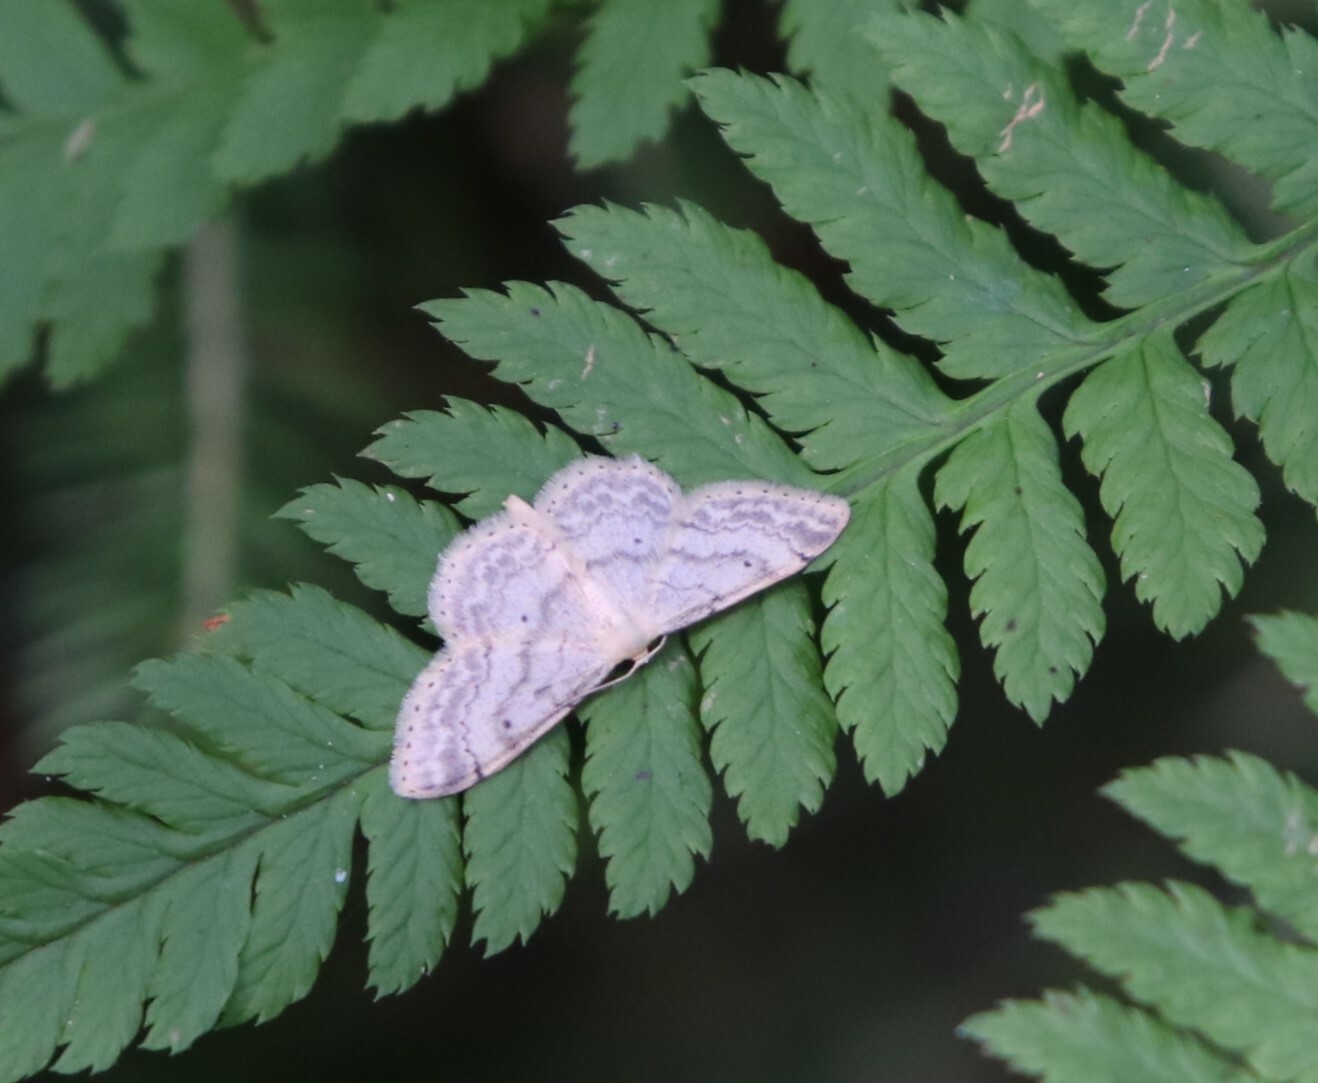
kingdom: Animalia
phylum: Arthropoda
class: Insecta
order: Lepidoptera
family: Geometridae
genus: Idaea
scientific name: Idaea biselata
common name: Small fan-footed wave
